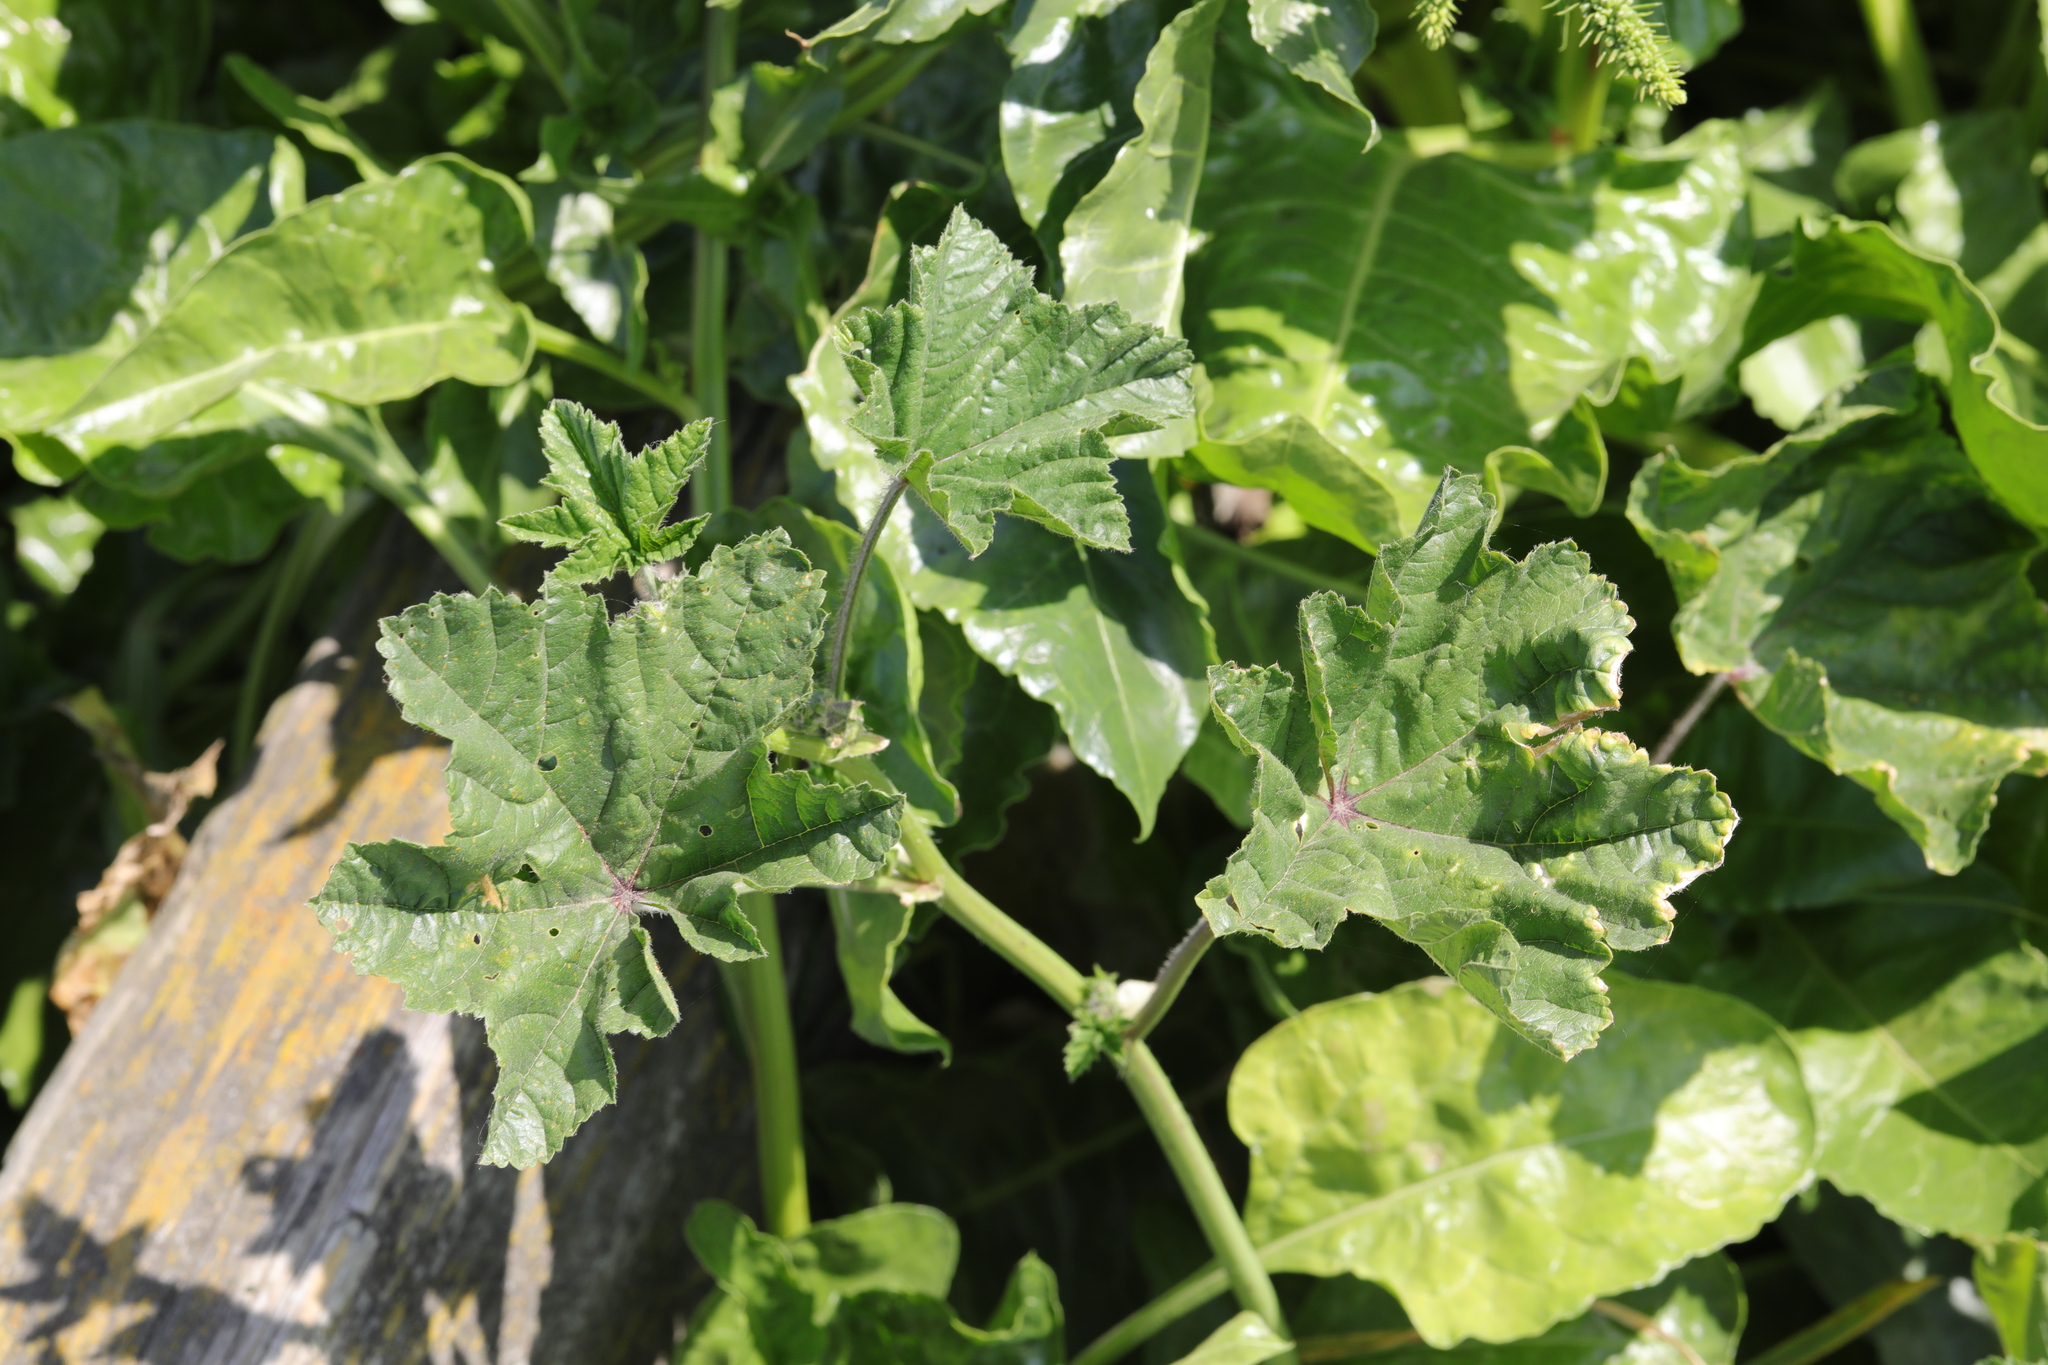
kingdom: Plantae
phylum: Tracheophyta
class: Magnoliopsida
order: Malvales
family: Malvaceae
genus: Malva
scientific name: Malva sylvestris
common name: Common mallow
